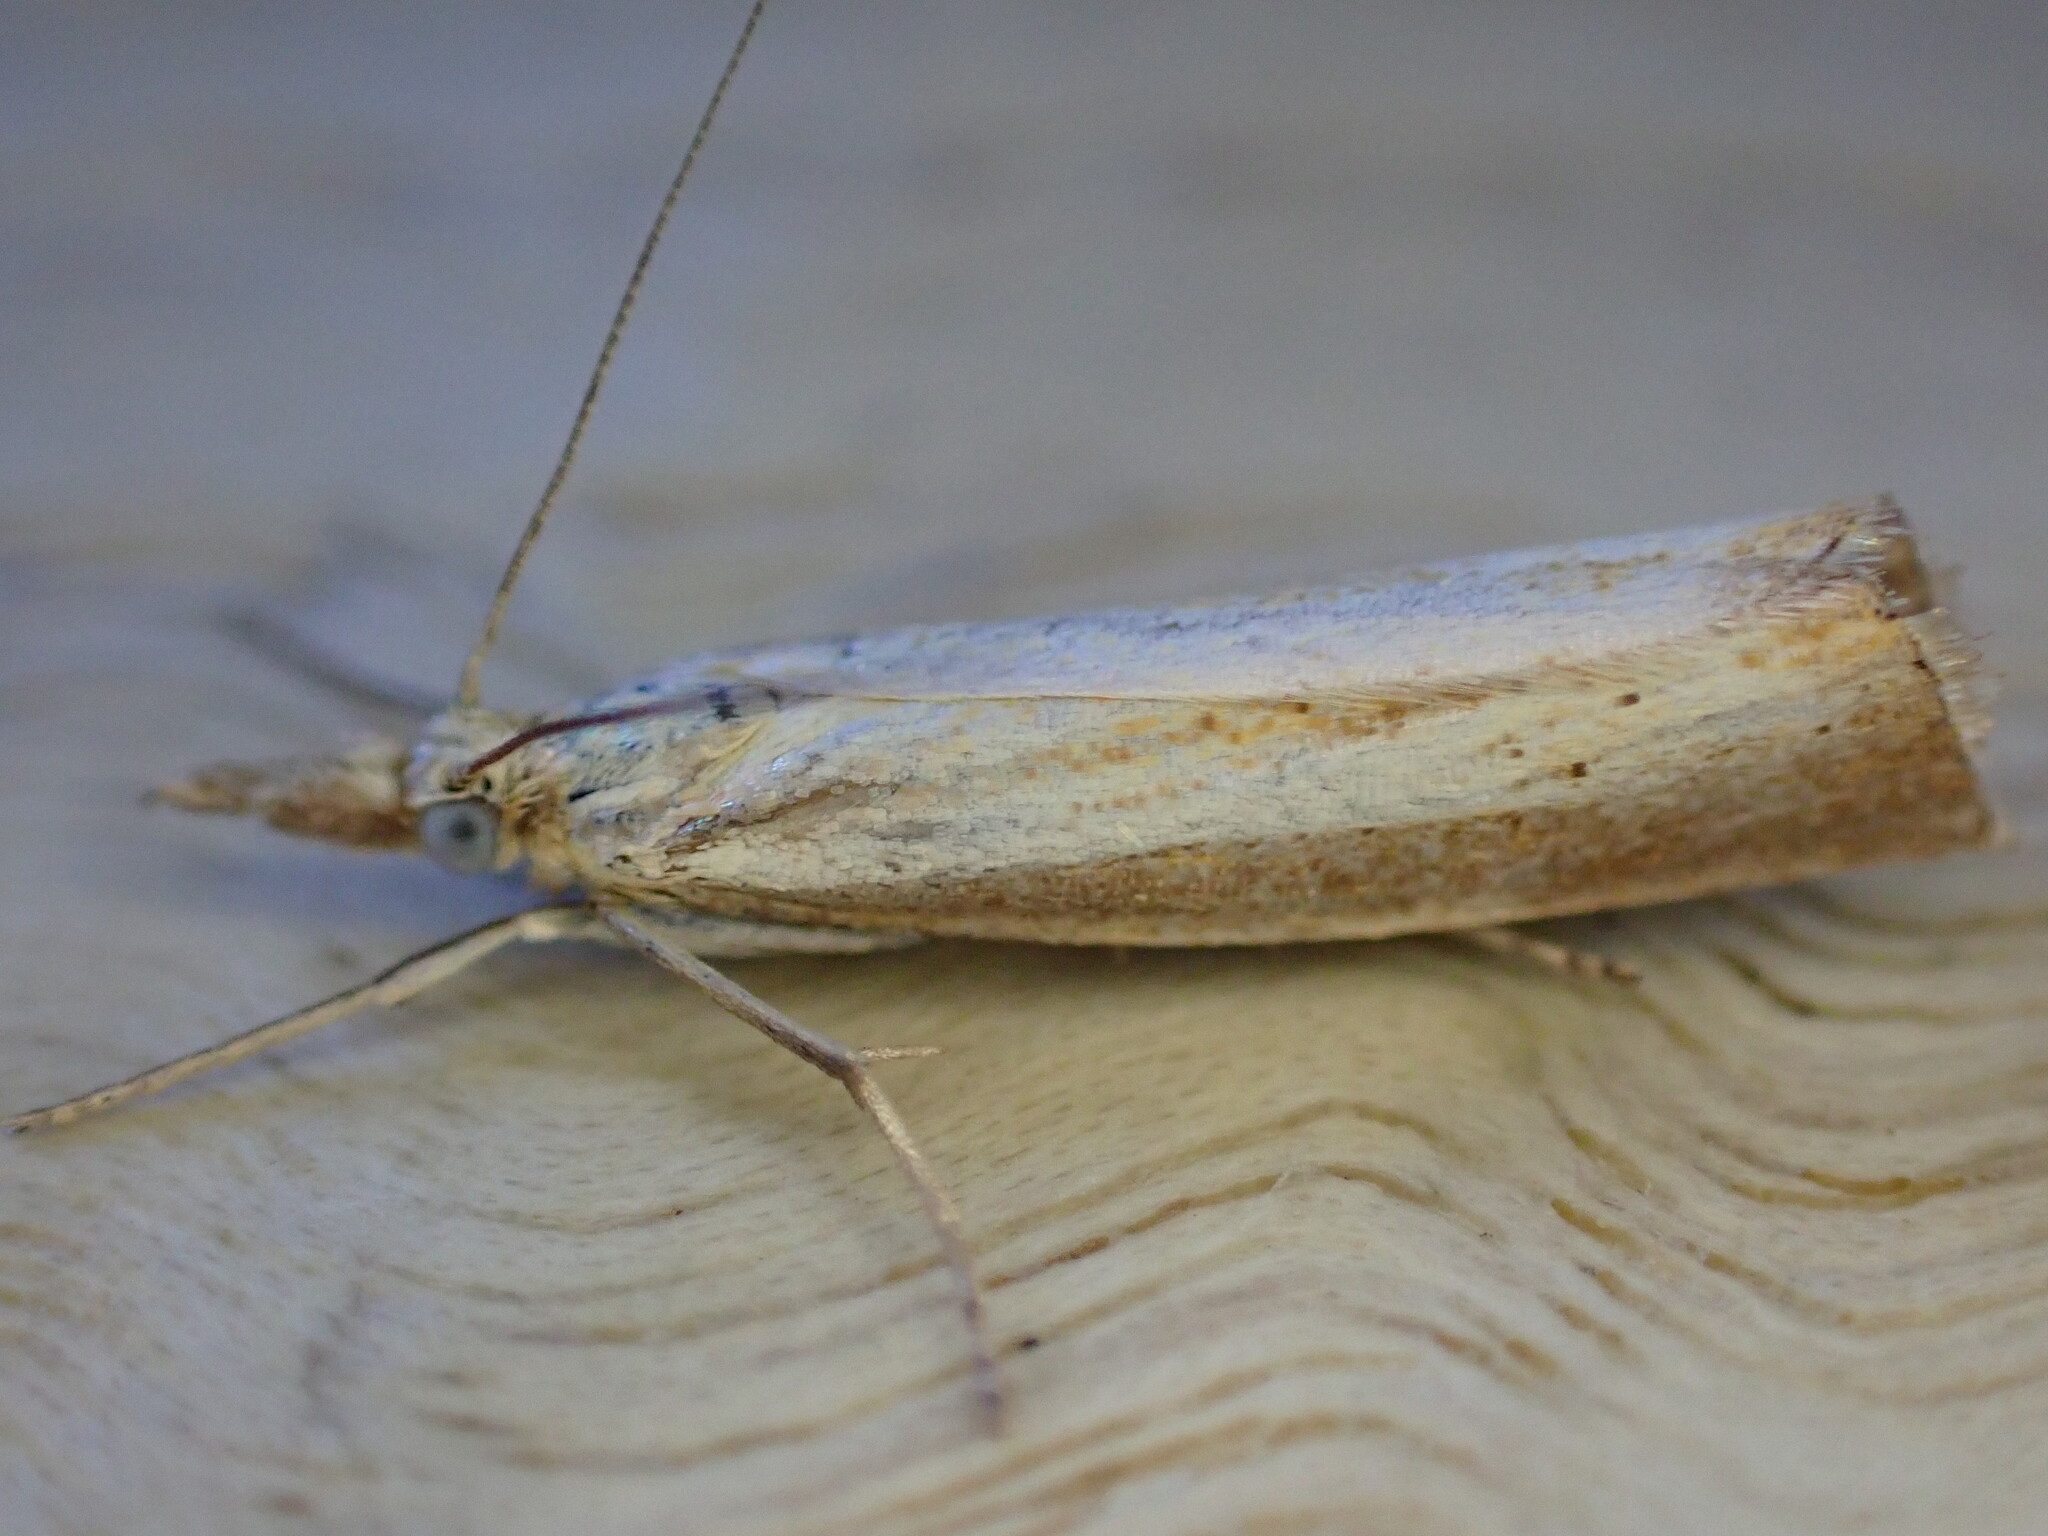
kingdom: Animalia
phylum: Arthropoda
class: Insecta
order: Lepidoptera
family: Crambidae
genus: Agriphila
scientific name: Agriphila straminella
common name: Straw grass-veneer
